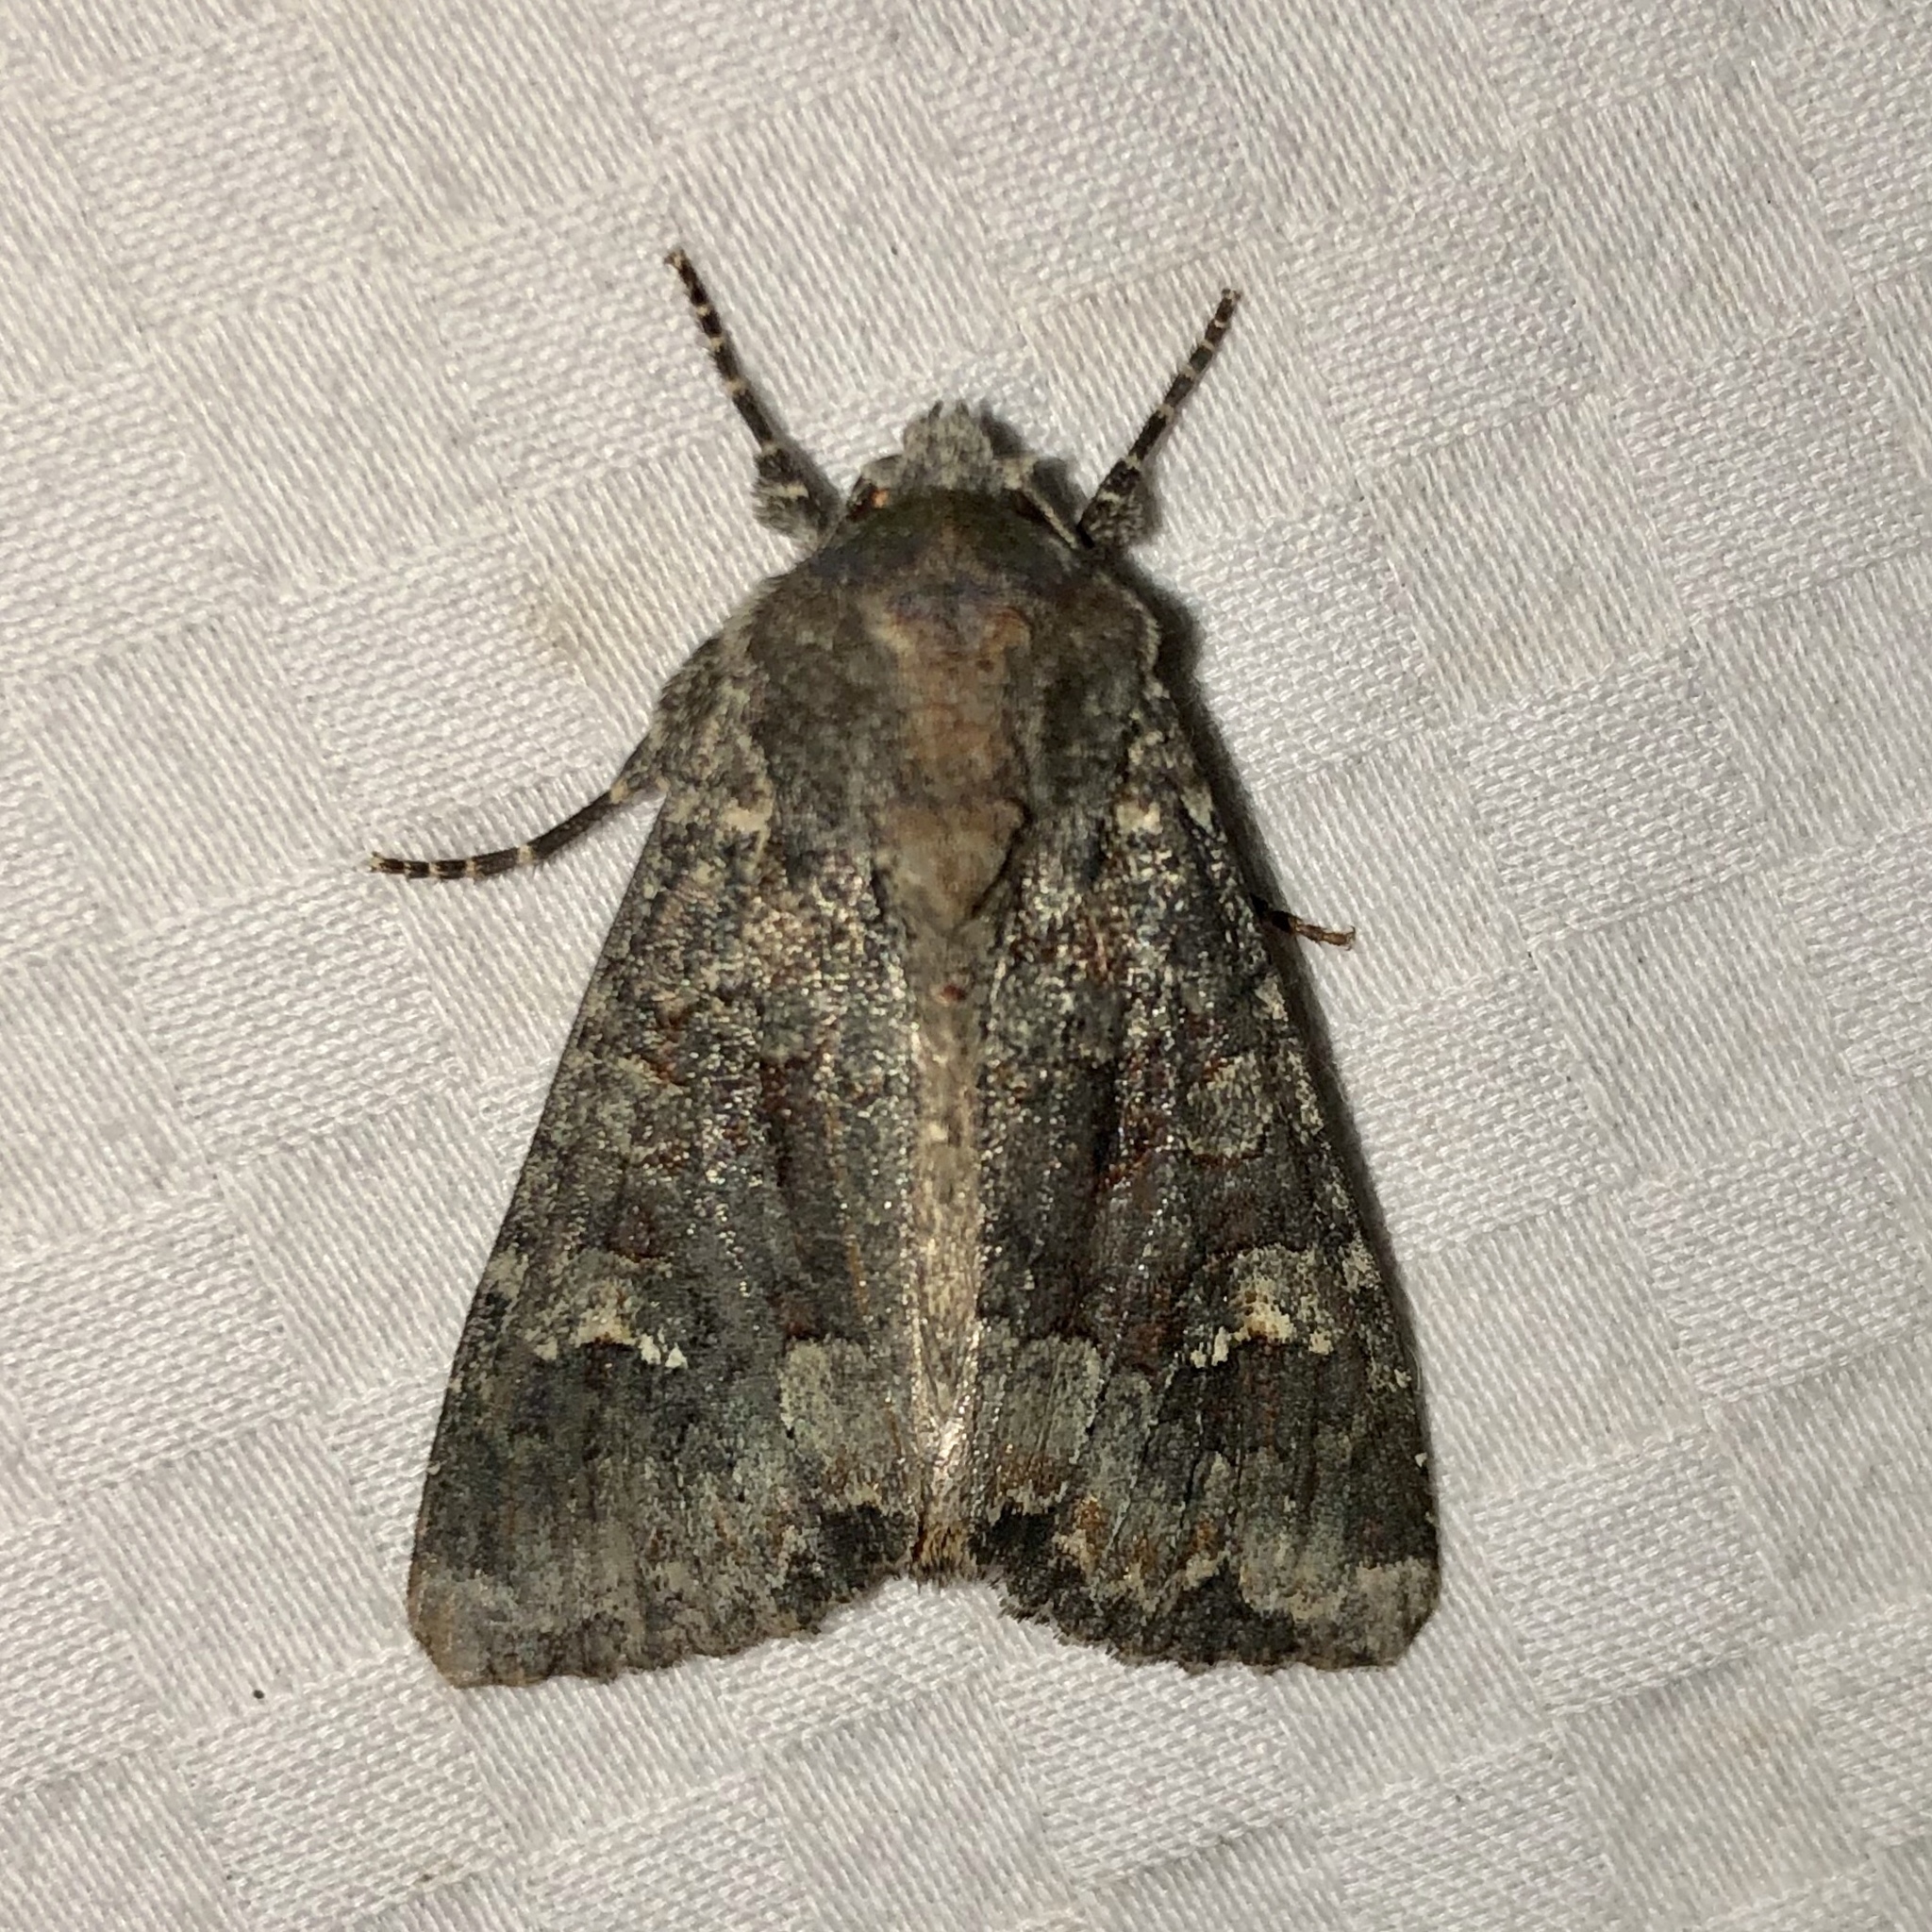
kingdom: Animalia
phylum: Arthropoda
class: Insecta
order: Lepidoptera
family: Noctuidae
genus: Apamea
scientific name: Apamea amputatrix
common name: Yellow-headed cutworm moth
